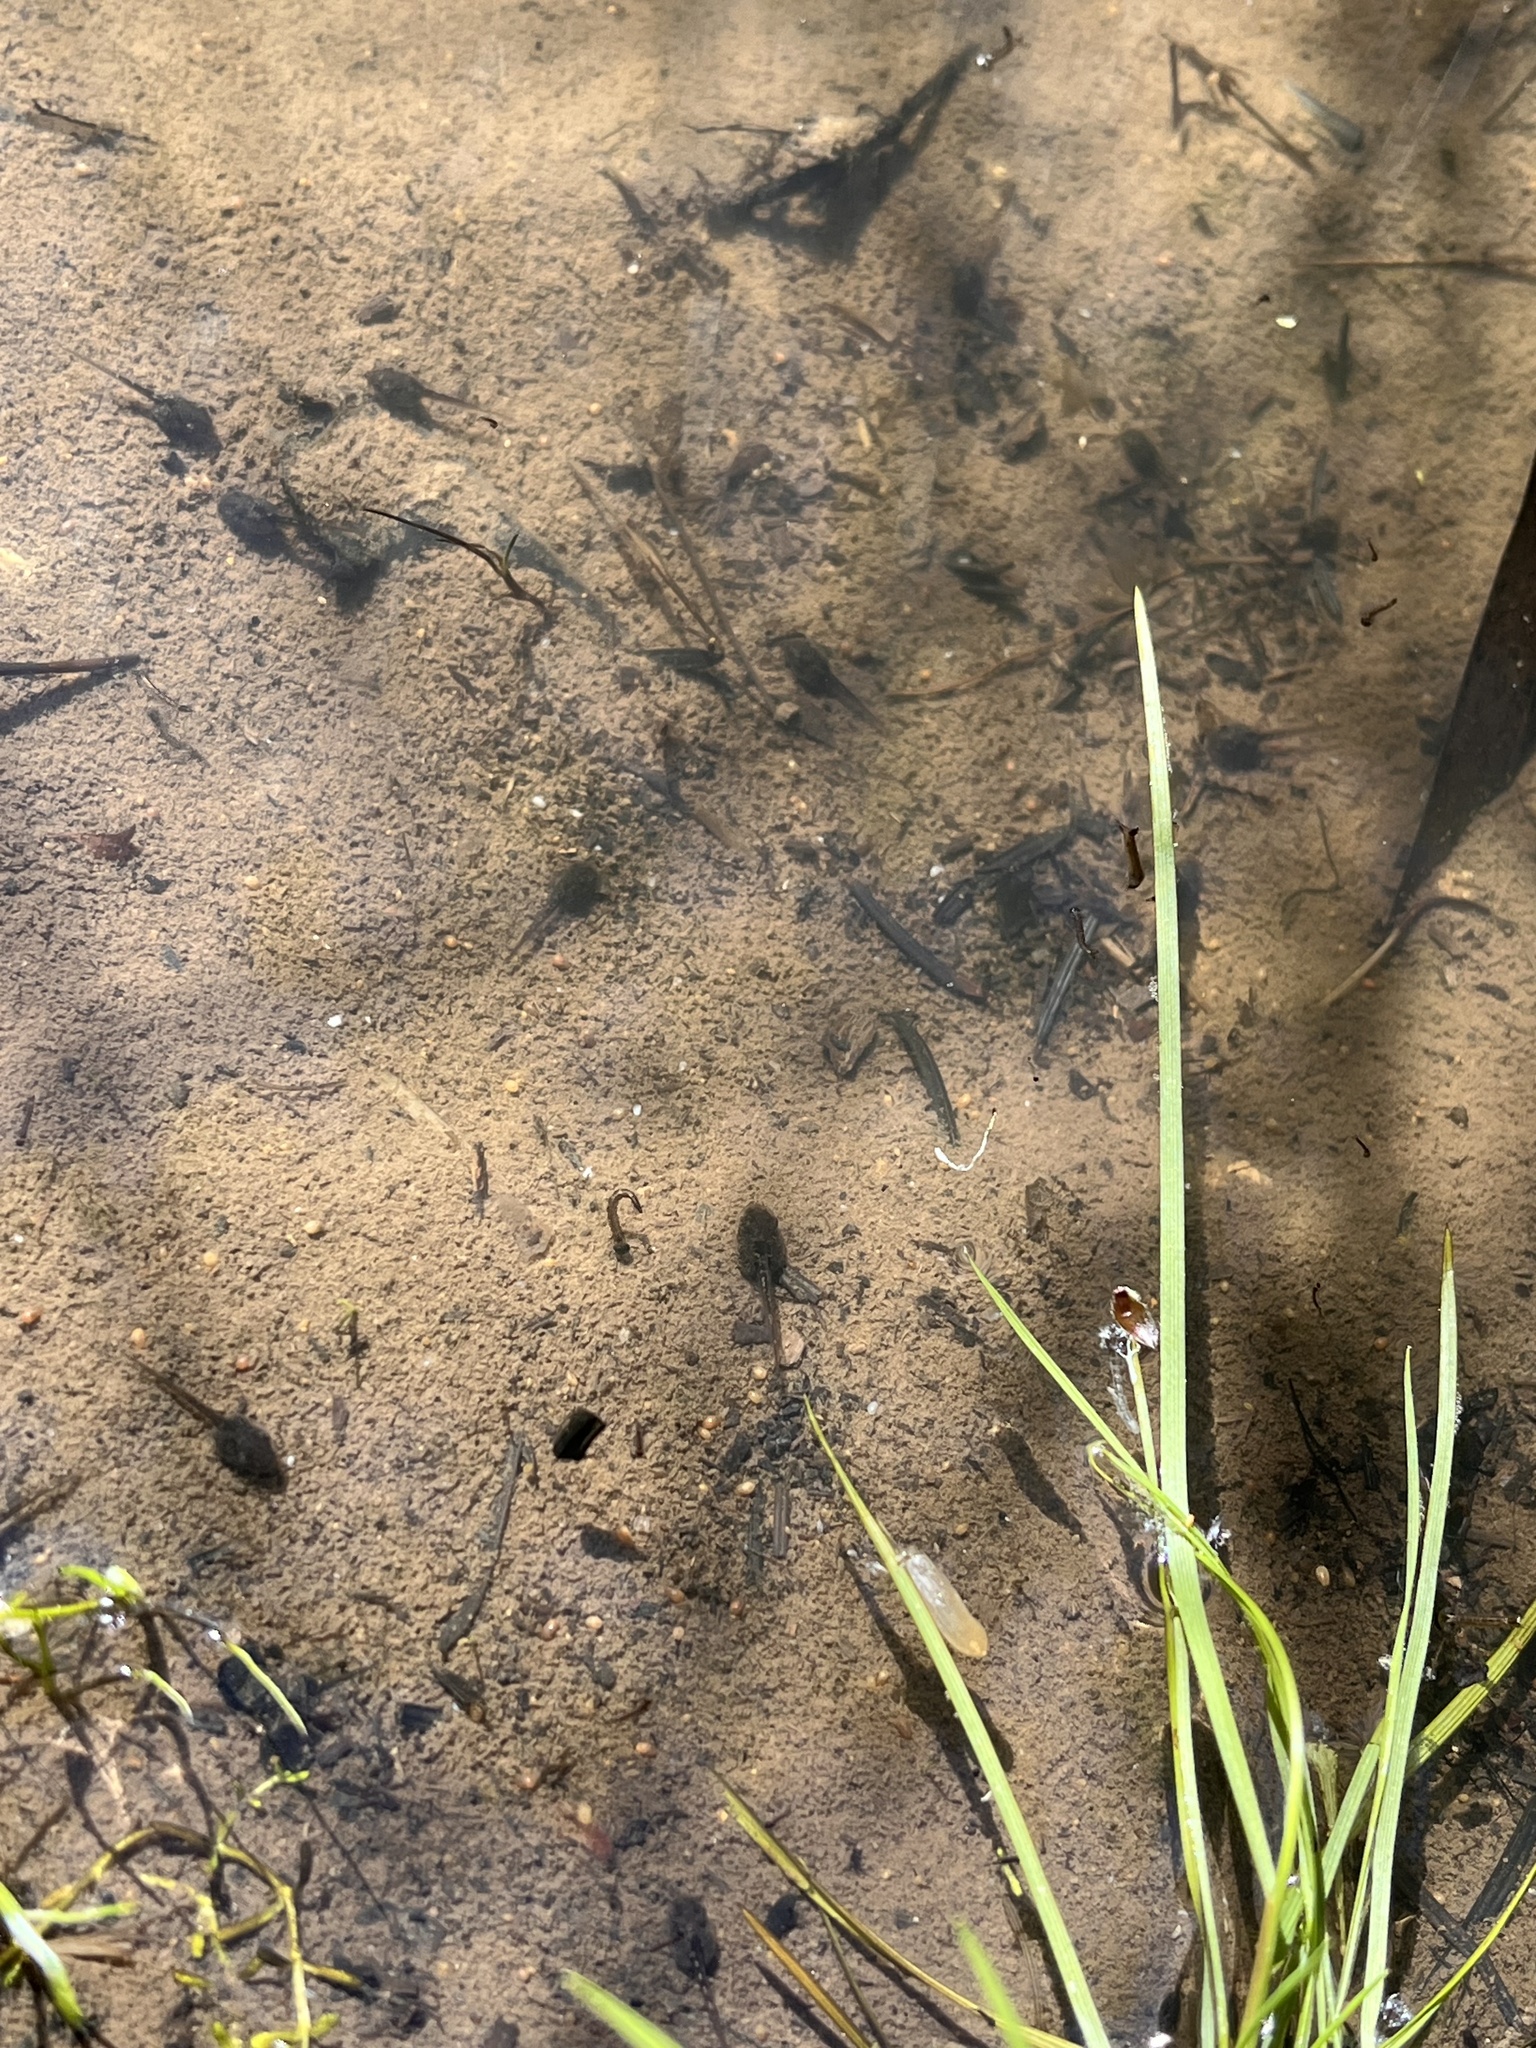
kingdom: Animalia
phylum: Chordata
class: Amphibia
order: Anura
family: Hylidae
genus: Pseudacris
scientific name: Pseudacris regilla
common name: Pacific chorus frog
